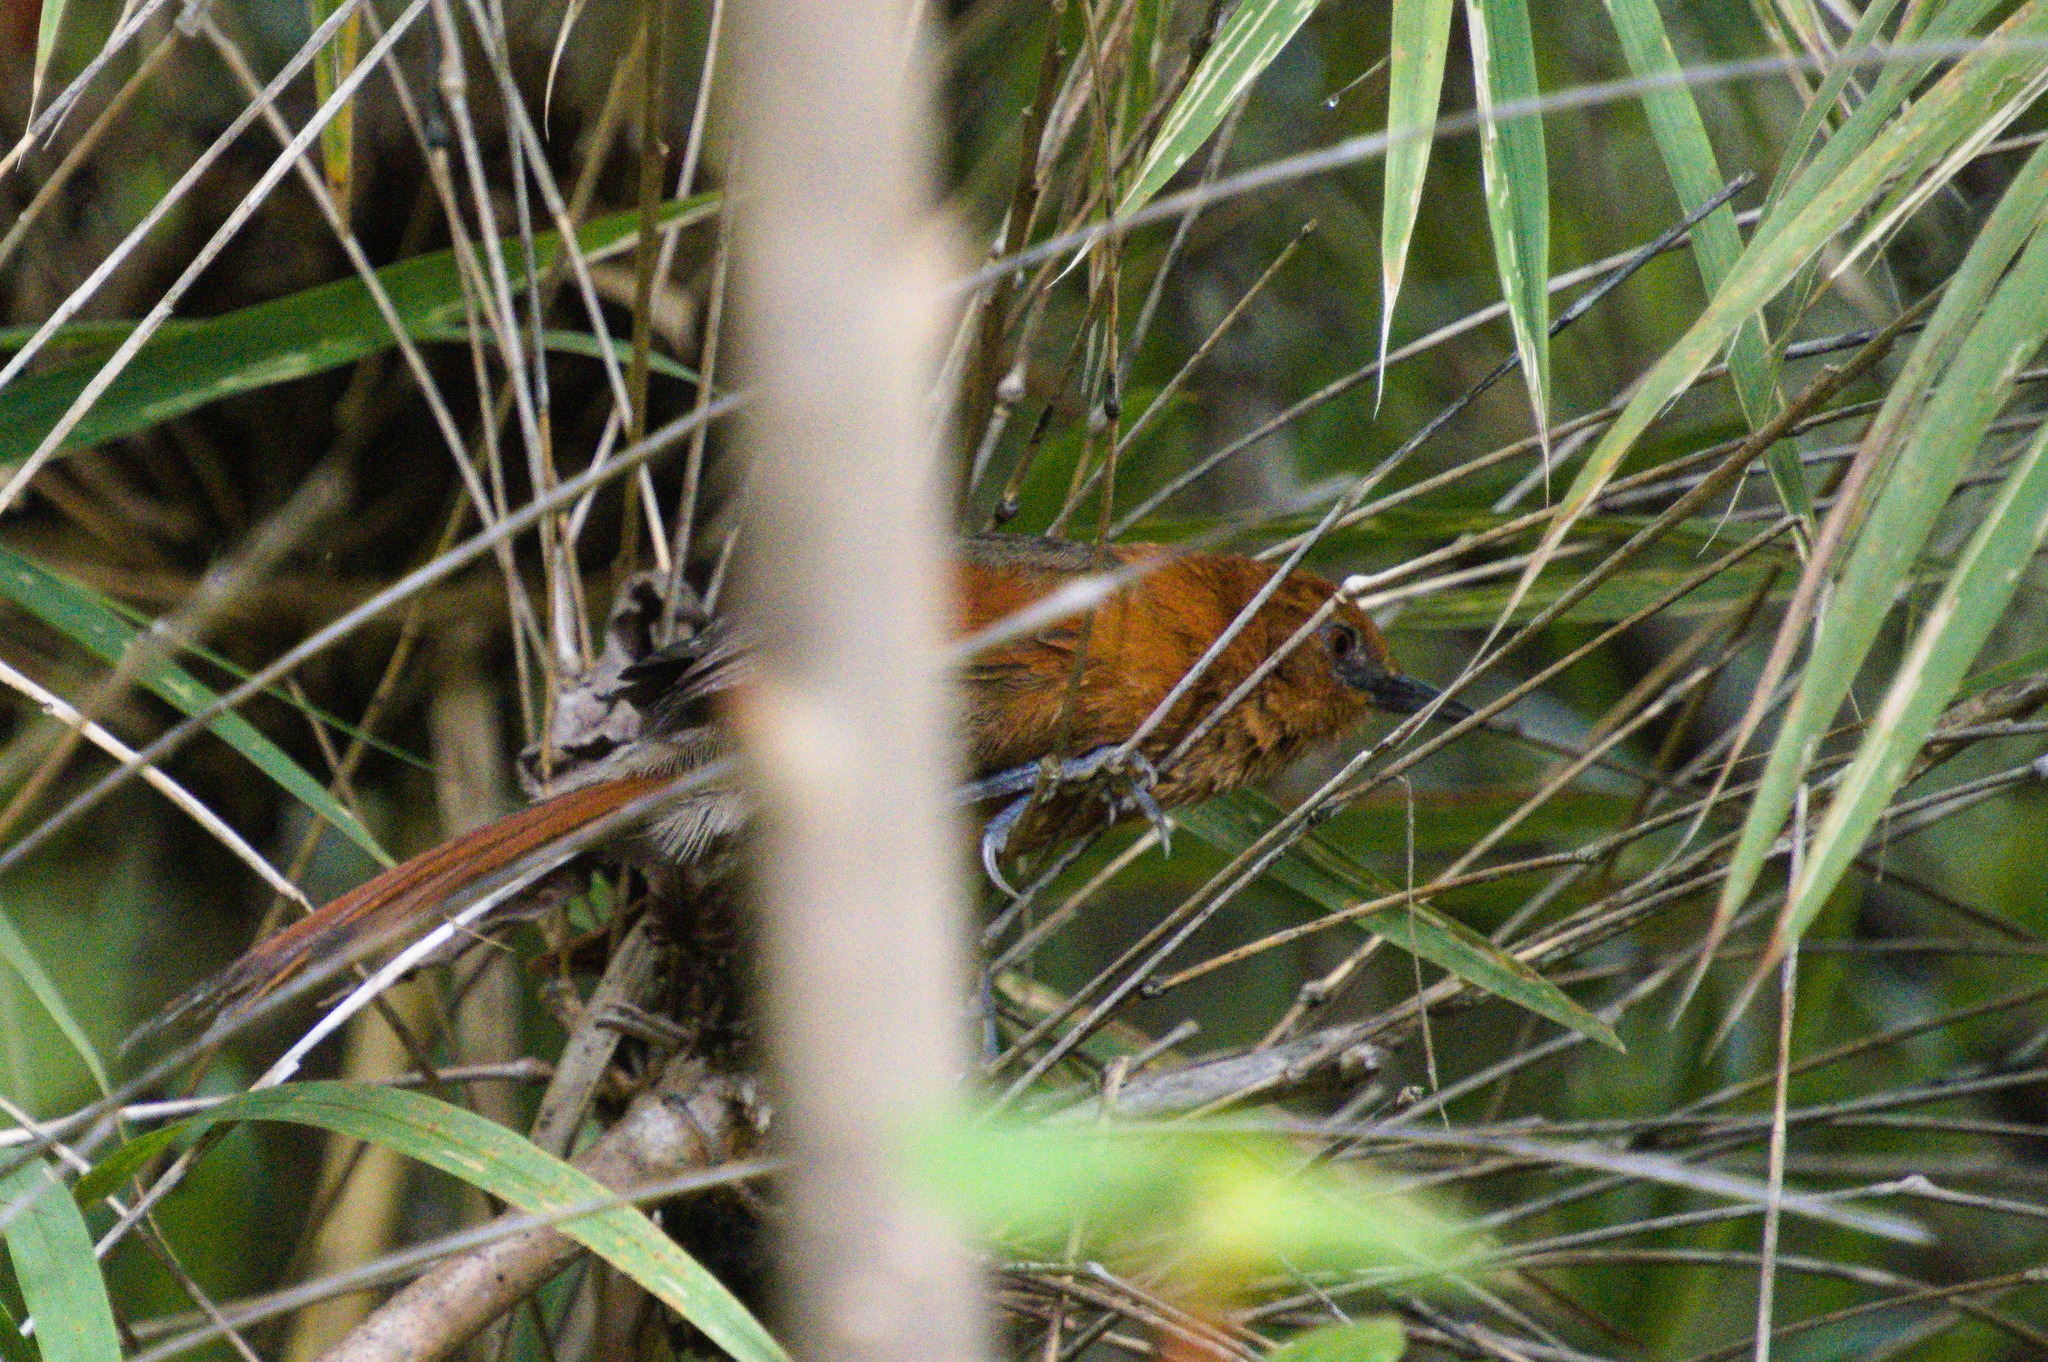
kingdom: Animalia
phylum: Chordata
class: Aves
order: Passeriformes
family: Furnariidae
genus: Synallaxis
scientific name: Synallaxis fuscorufa
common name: Rusty-headed spinetail
